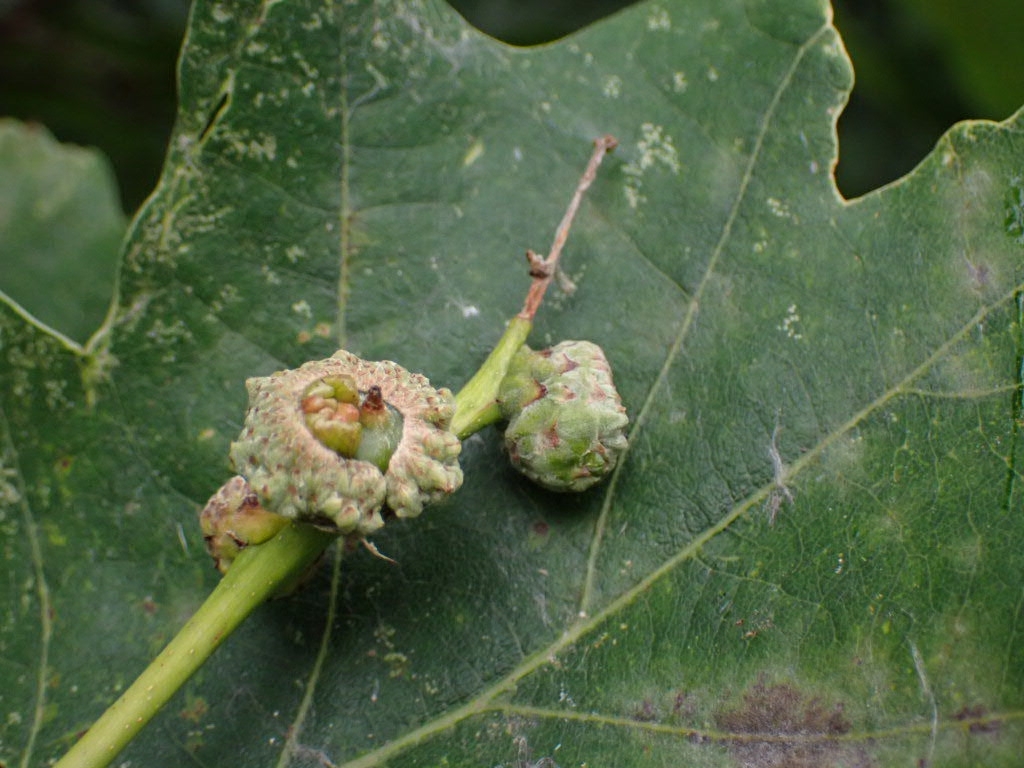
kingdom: Animalia
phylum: Arthropoda
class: Insecta
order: Hymenoptera
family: Cynipidae
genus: Andricus
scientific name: Andricus quercuscalicis
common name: Knopper gall
